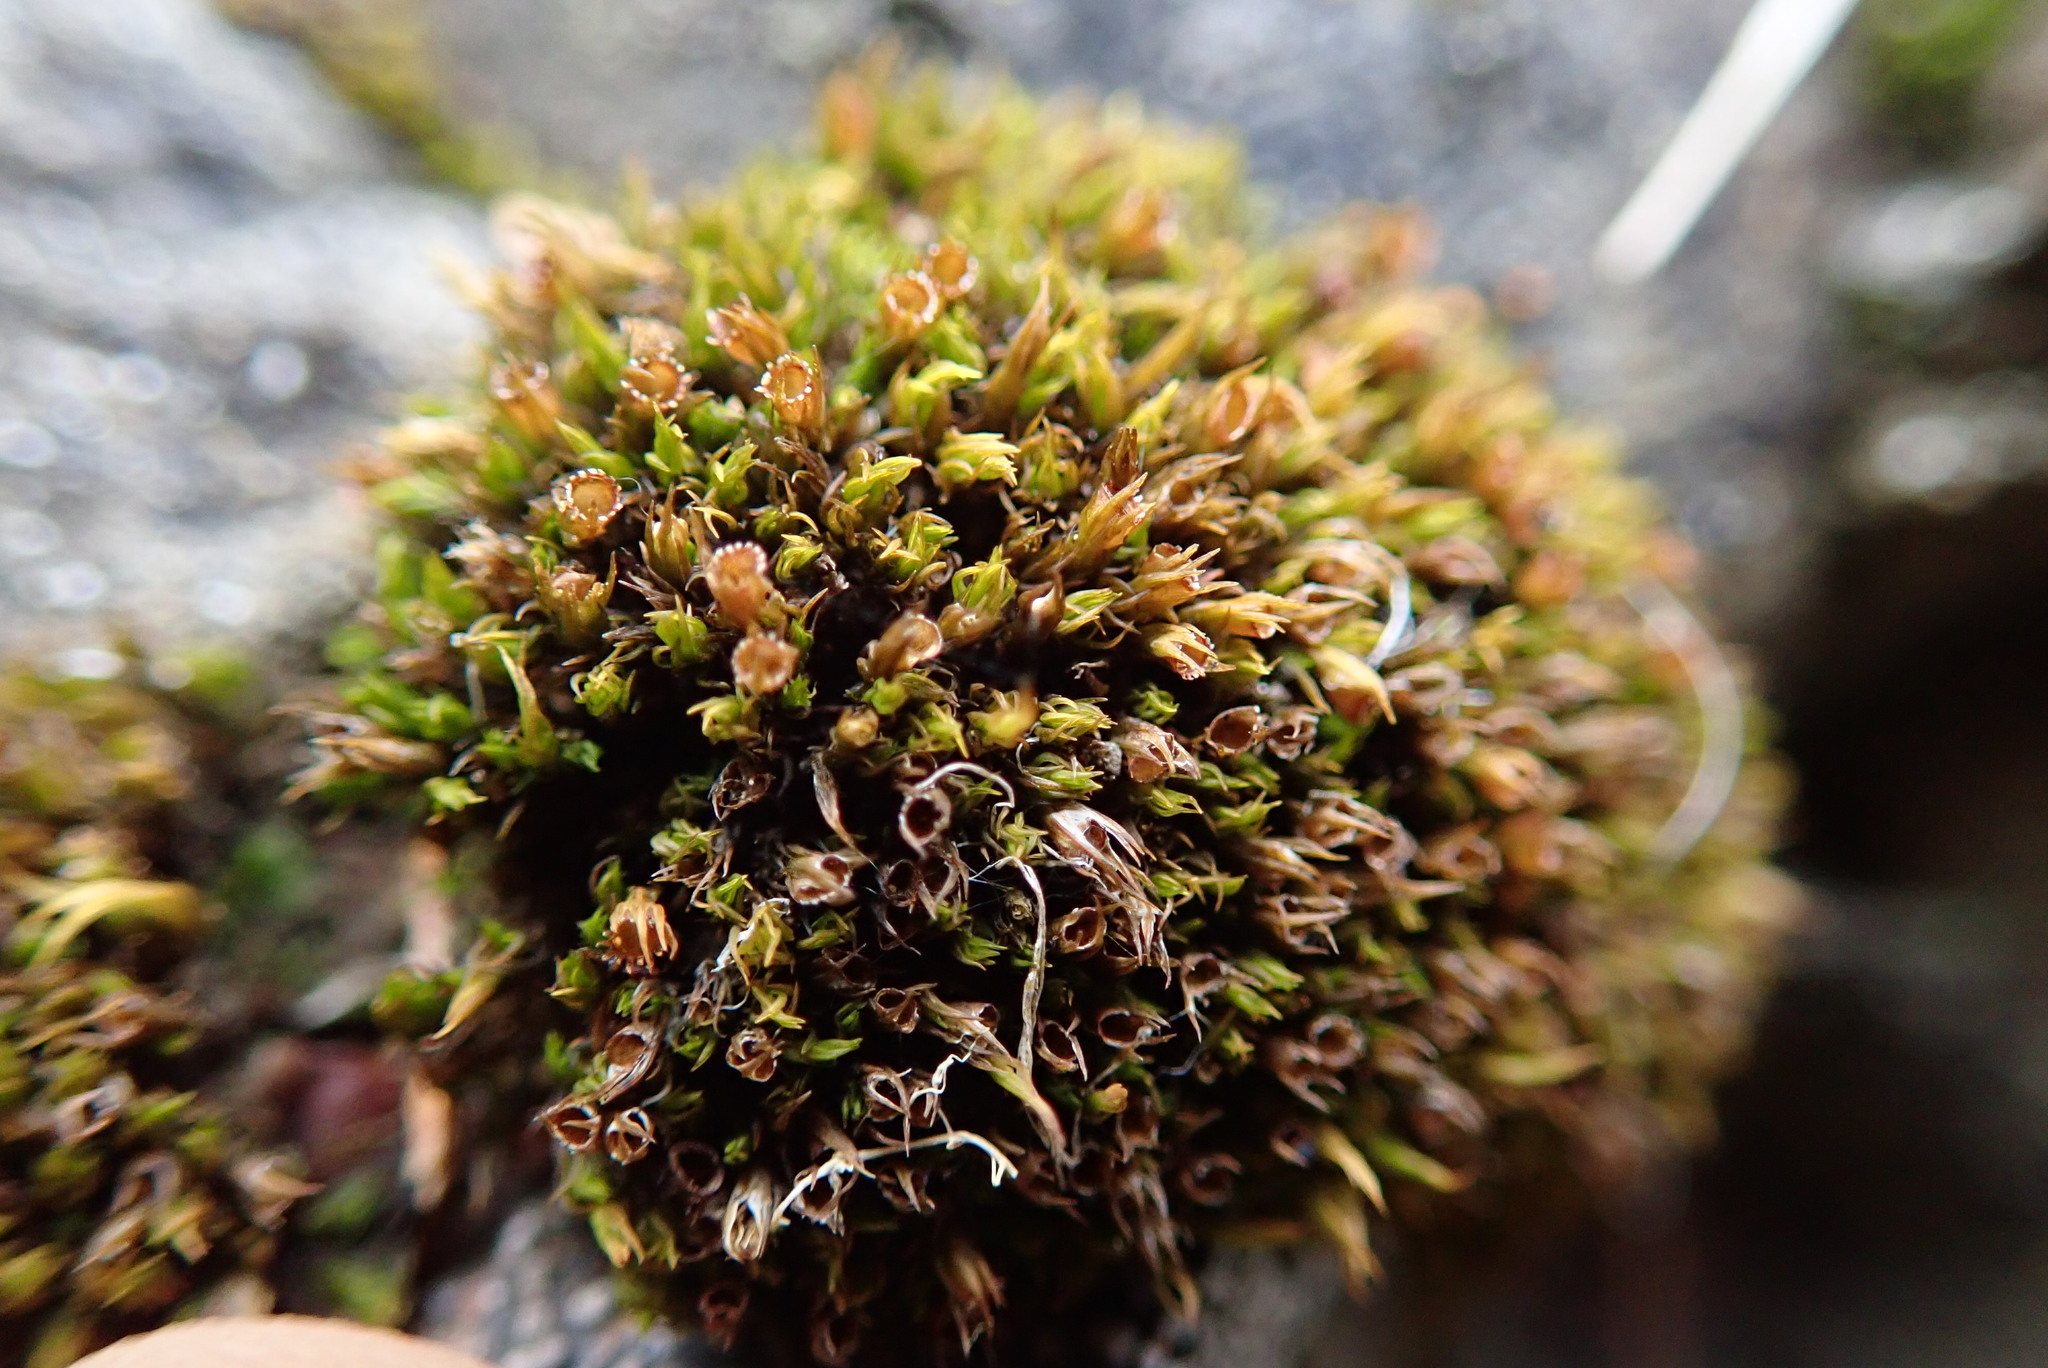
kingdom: Plantae
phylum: Bryophyta
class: Bryopsida
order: Grimmiales
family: Grimmiaceae
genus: Schistidium
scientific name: Schistidium maritimum
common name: Seaside bloom moss
